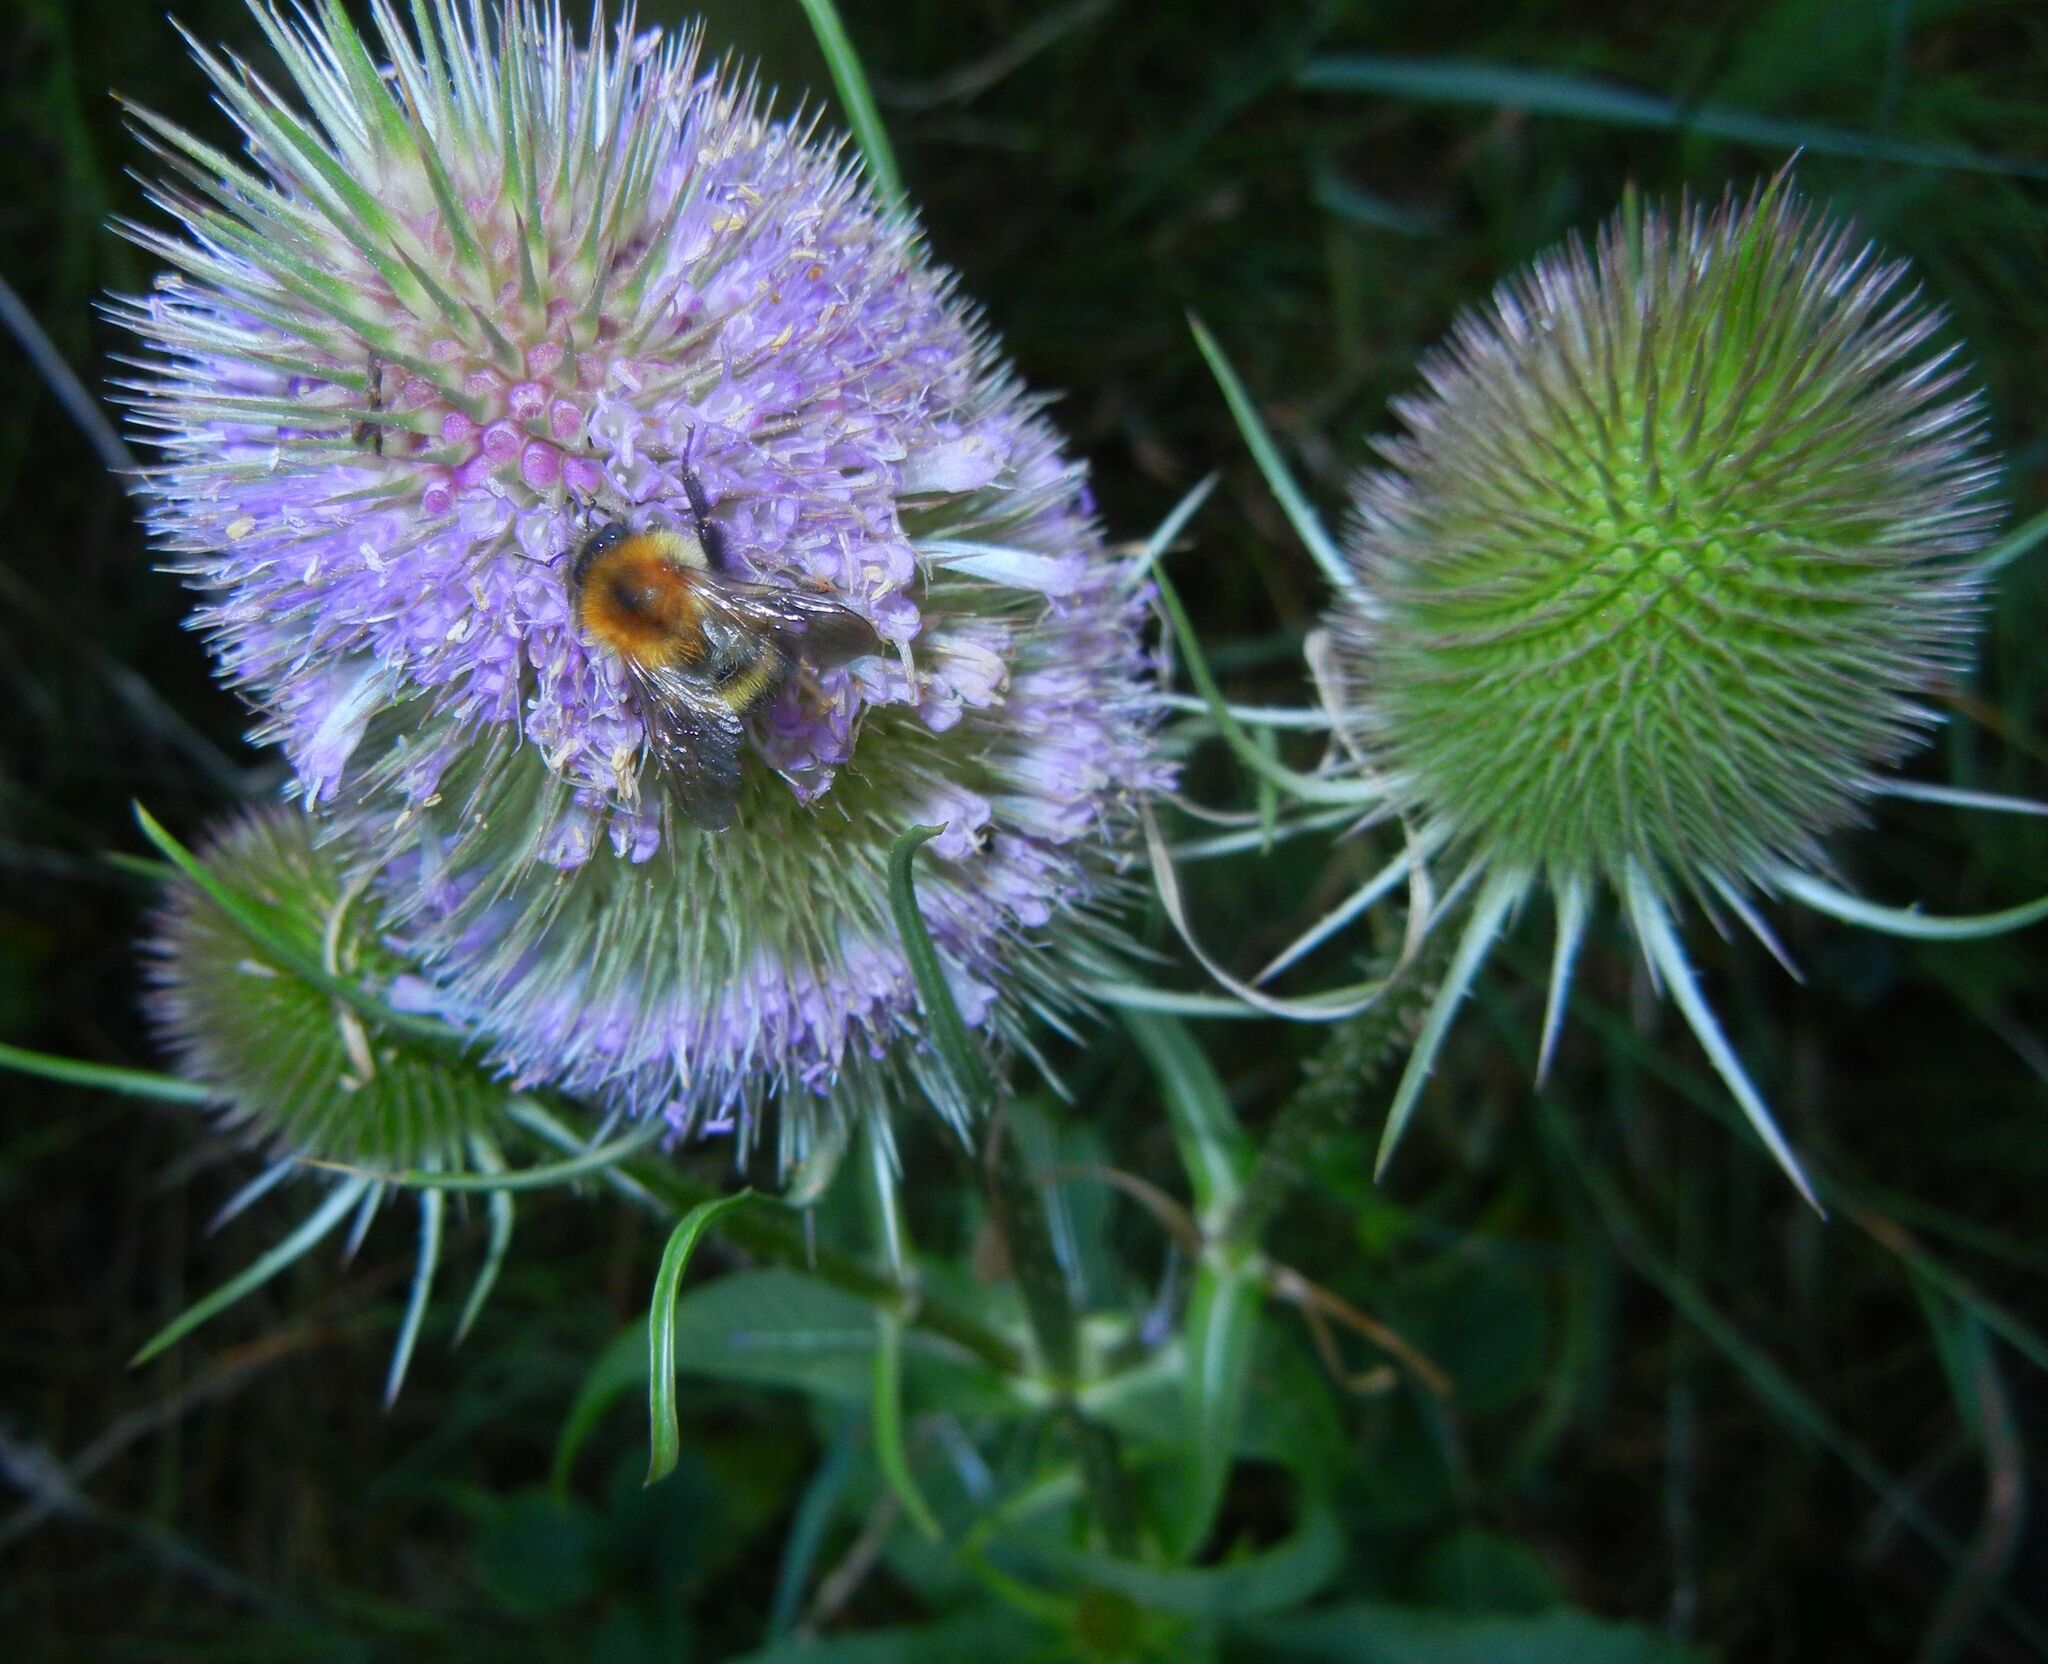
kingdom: Plantae
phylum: Tracheophyta
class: Magnoliopsida
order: Dipsacales
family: Caprifoliaceae
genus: Dipsacus
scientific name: Dipsacus fullonum
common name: Teasel
